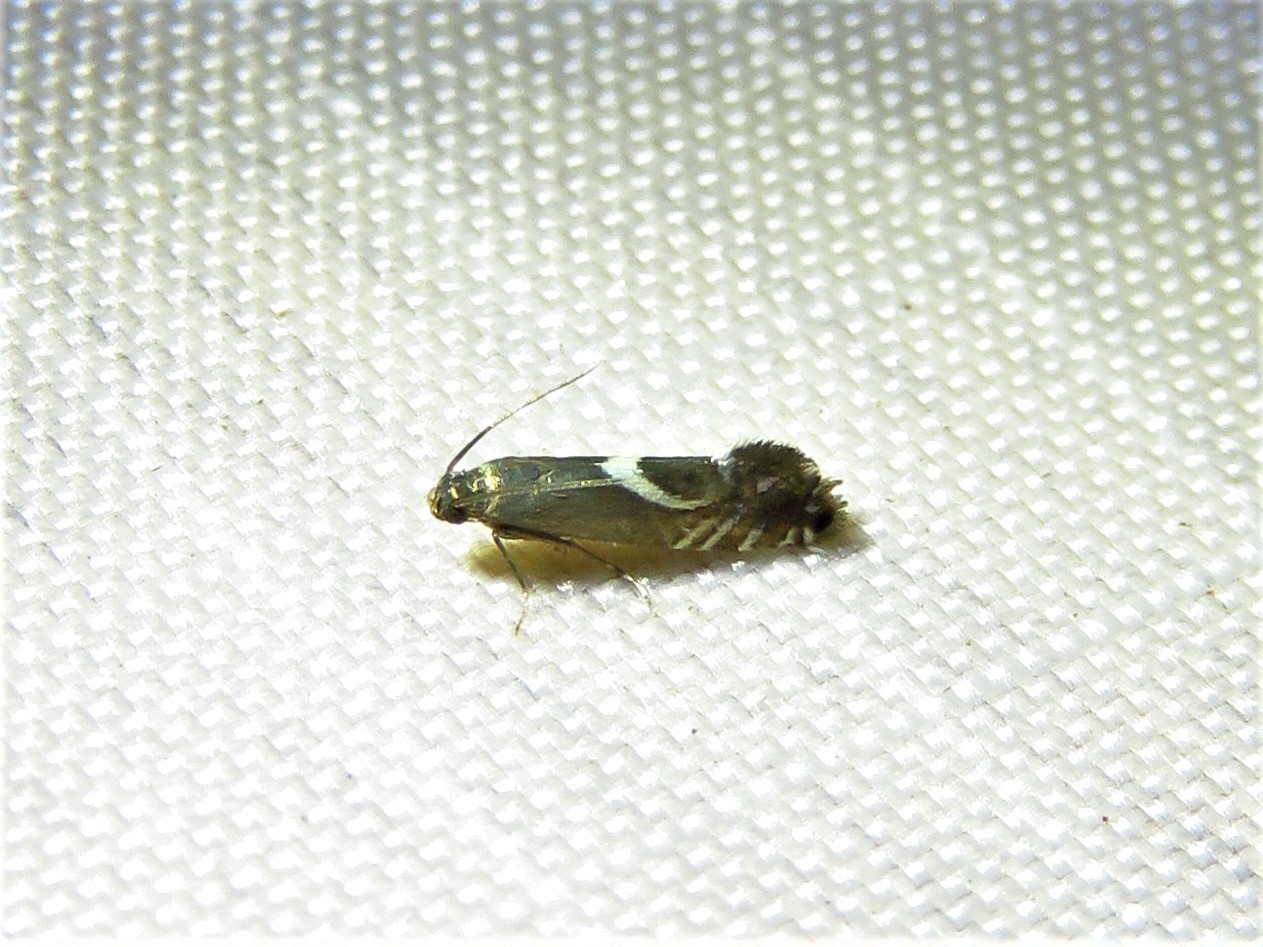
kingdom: Animalia
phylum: Arthropoda
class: Insecta
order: Lepidoptera
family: Glyphipterigidae
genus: Glyphipterix
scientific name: Glyphipterix Diploschizia impigritella
